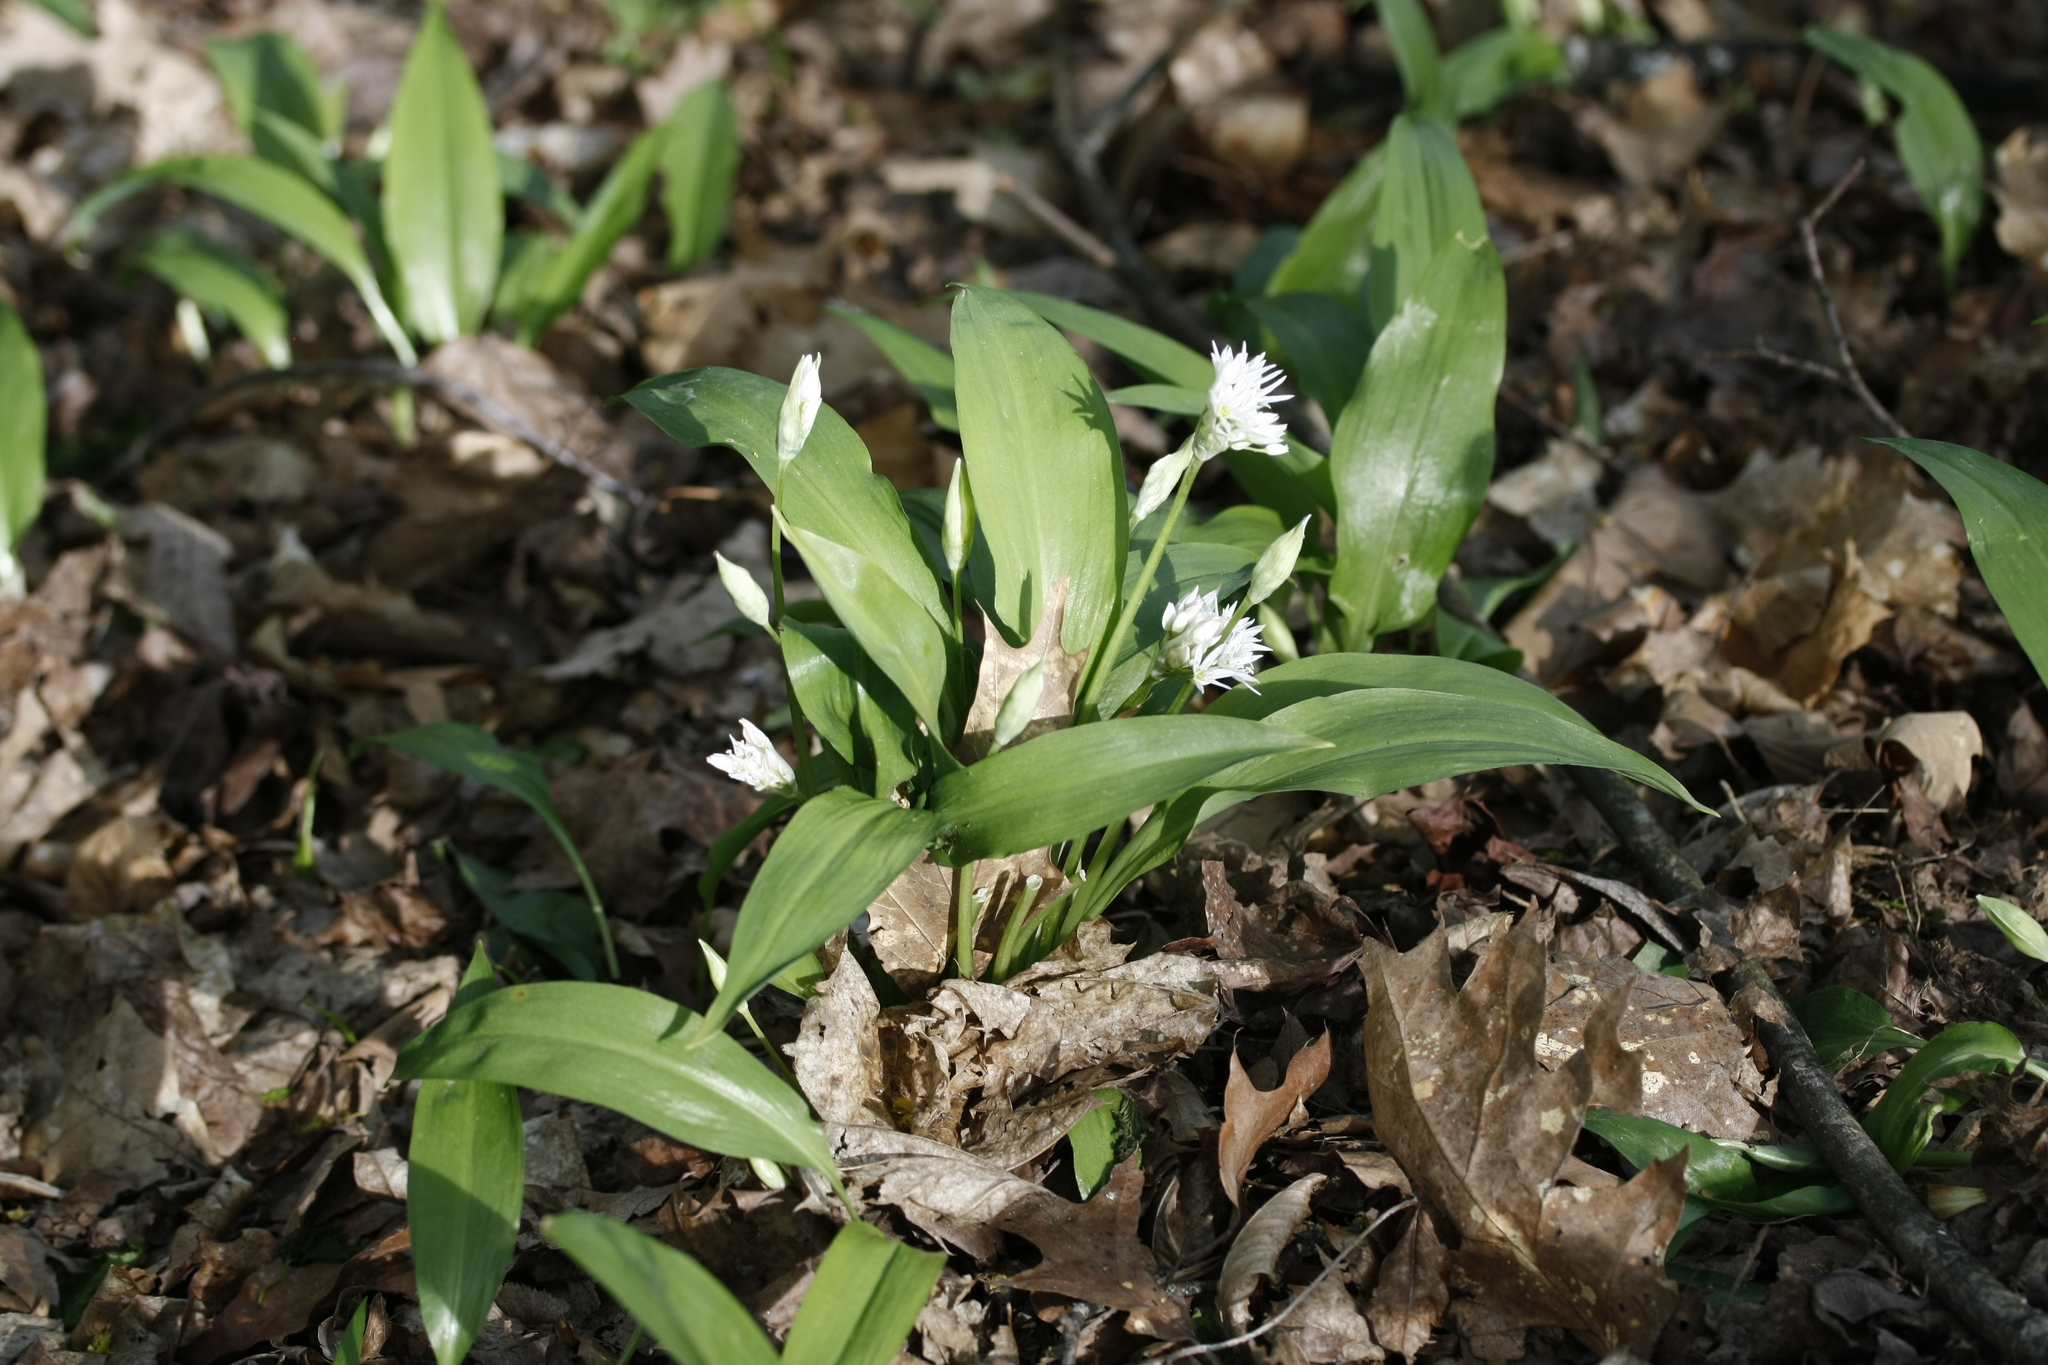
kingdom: Plantae
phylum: Tracheophyta
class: Liliopsida
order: Asparagales
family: Amaryllidaceae
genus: Allium
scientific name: Allium ursinum
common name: Ramsons
